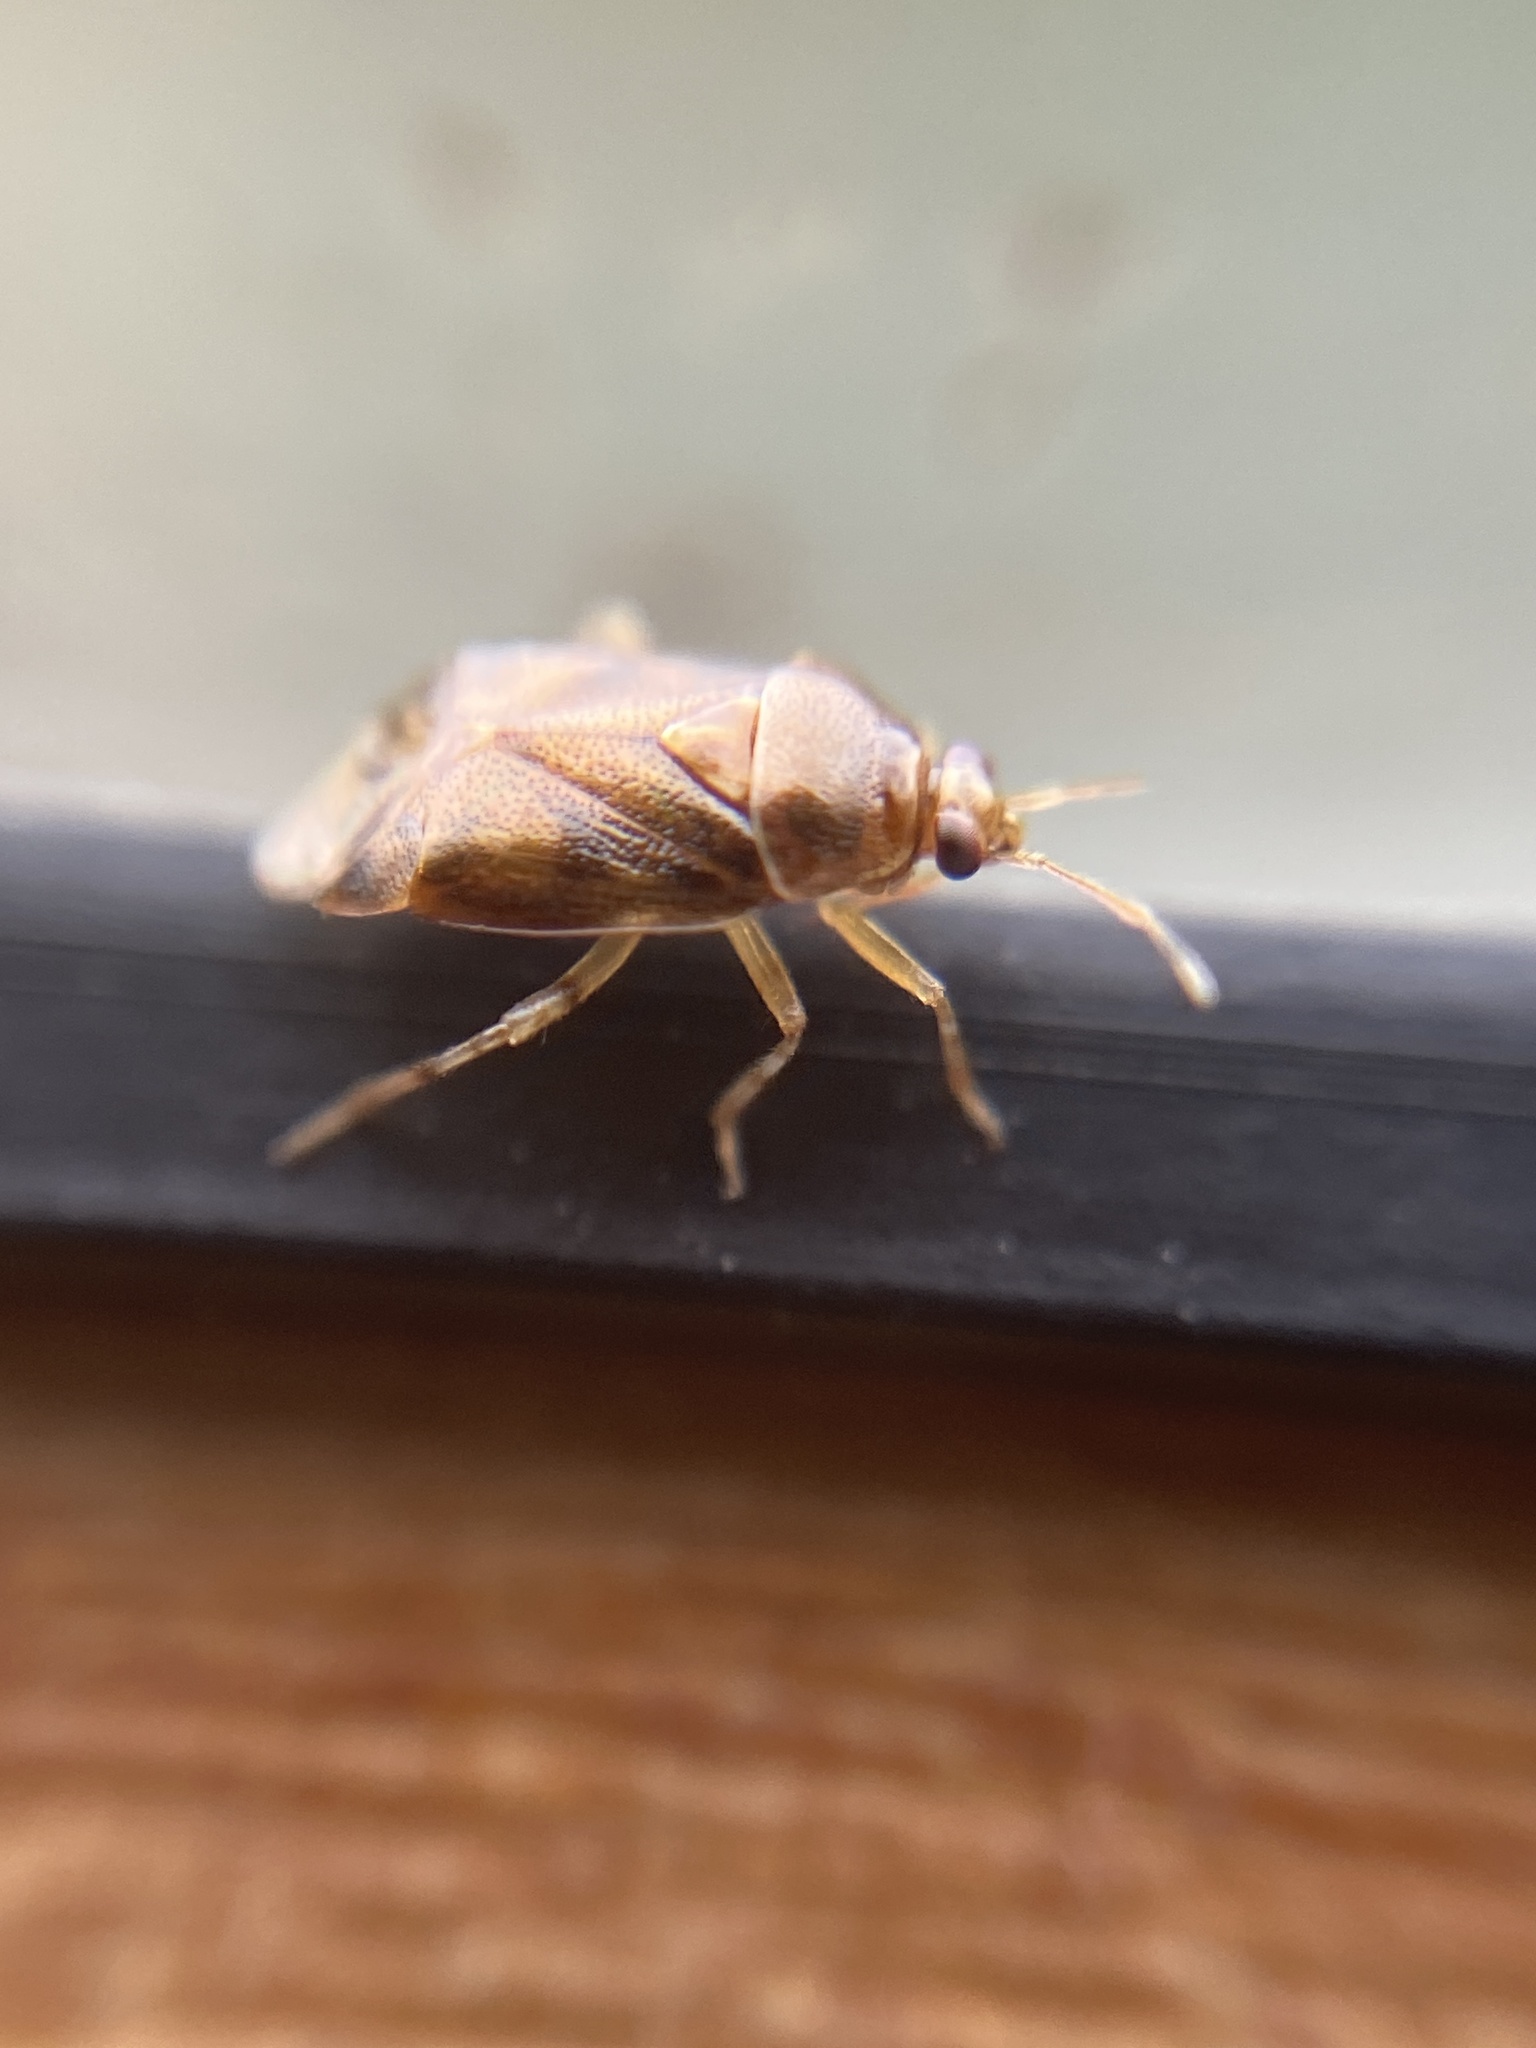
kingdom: Animalia
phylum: Arthropoda
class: Insecta
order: Hemiptera
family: Miridae
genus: Deraeocoris
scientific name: Deraeocoris lutescens
